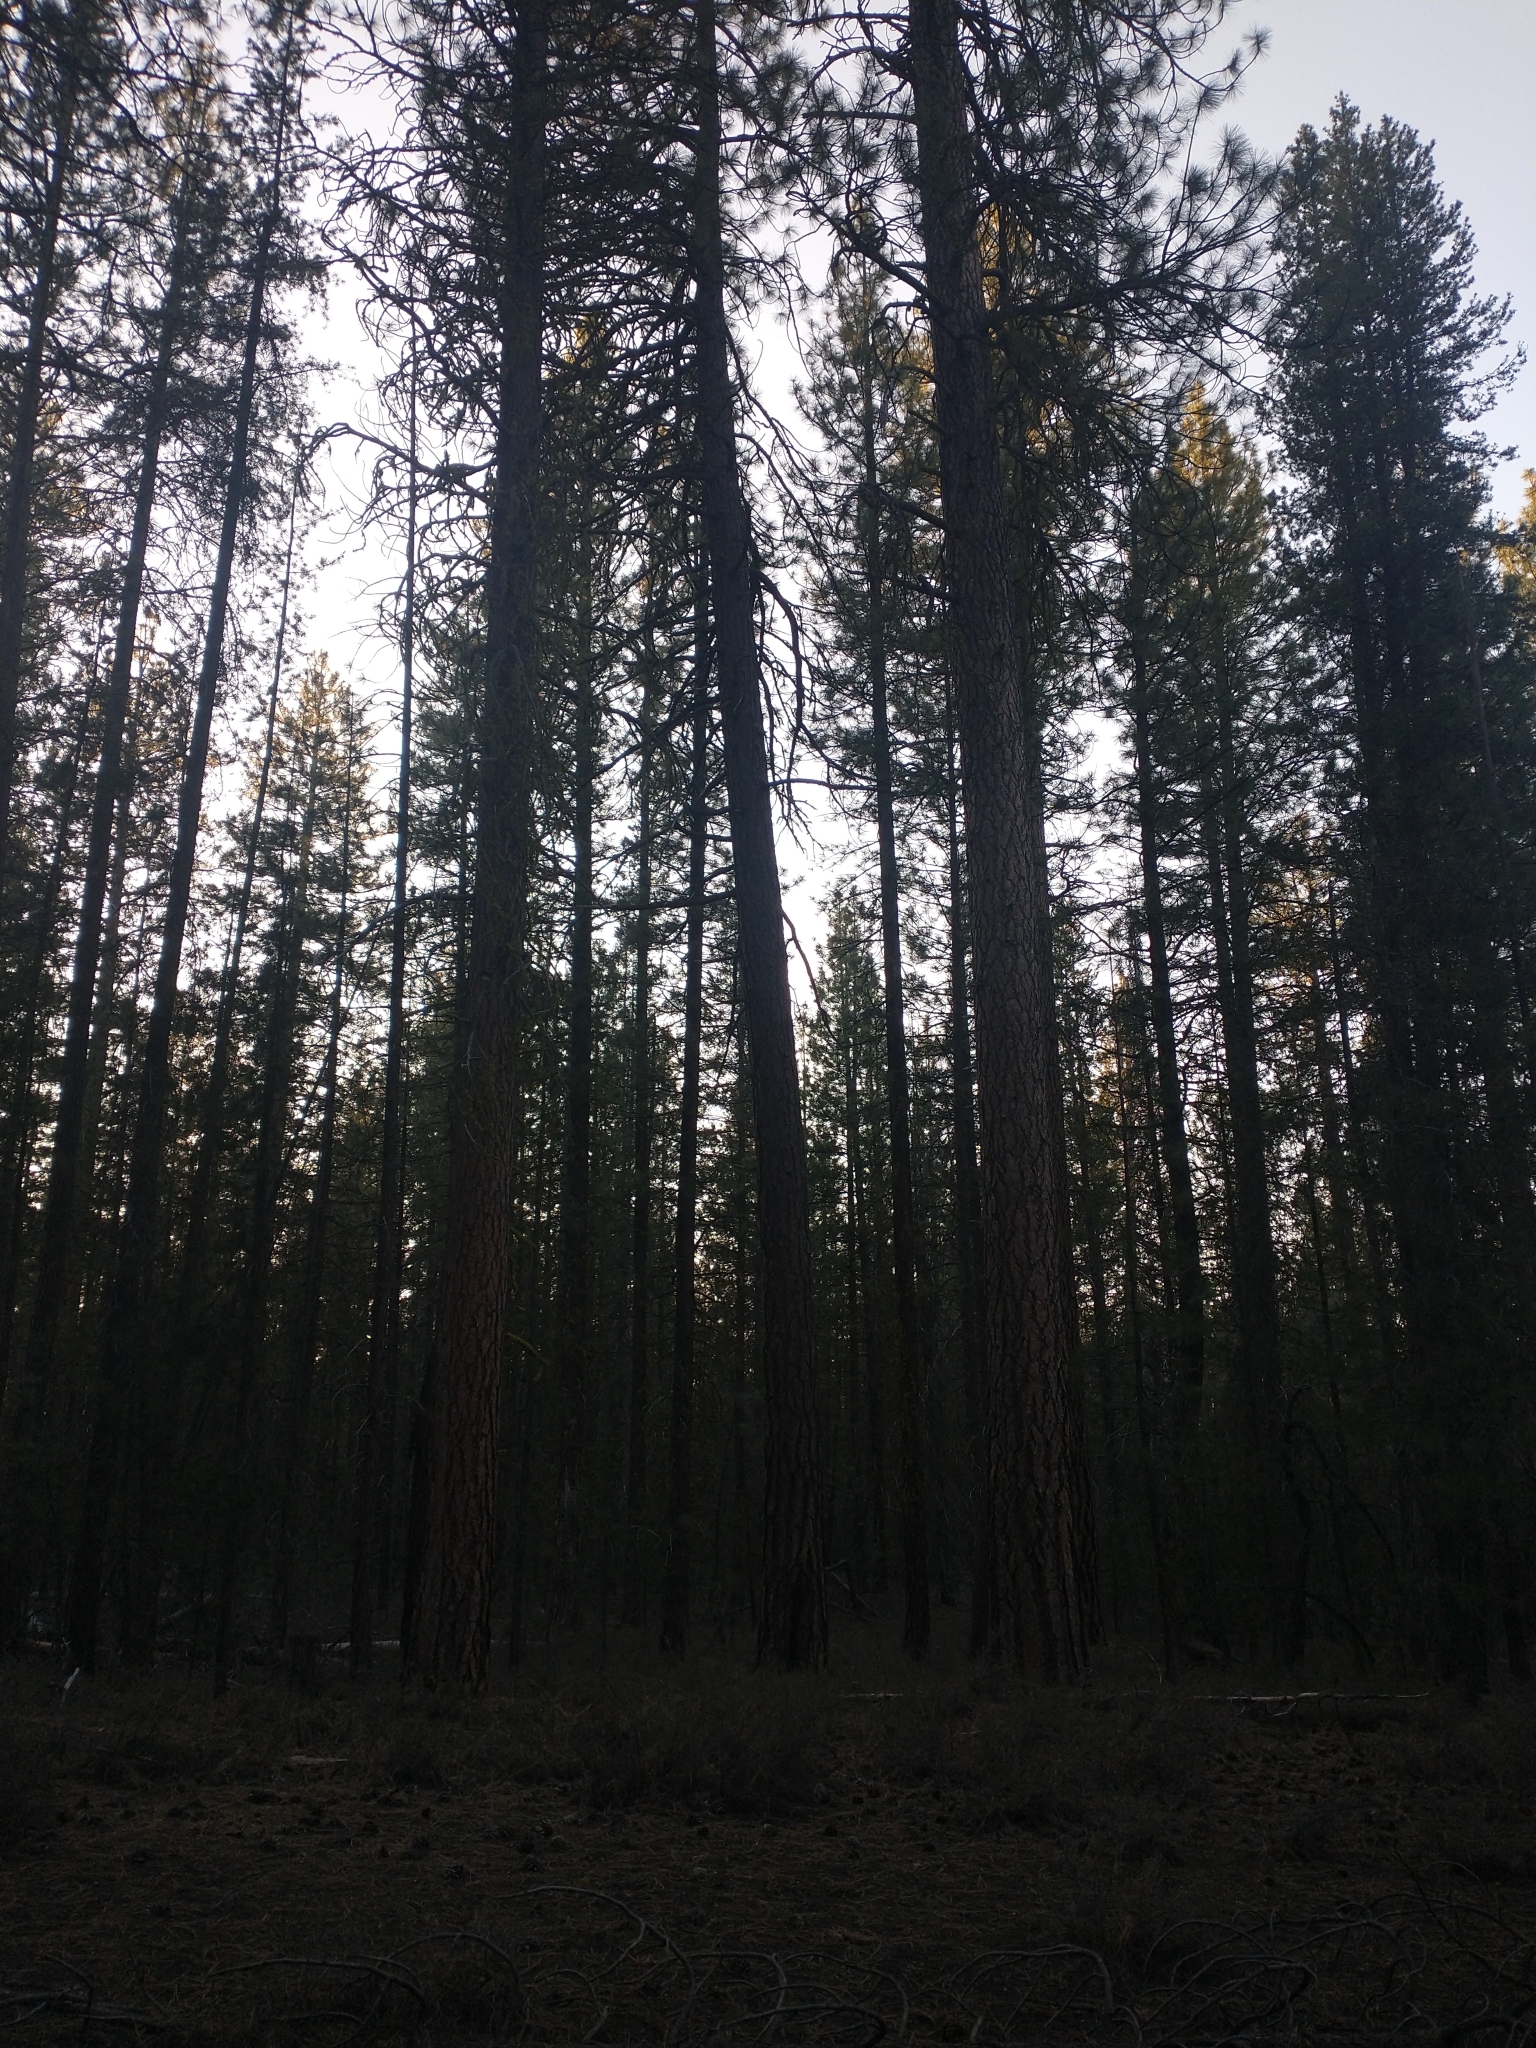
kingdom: Plantae
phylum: Tracheophyta
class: Pinopsida
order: Pinales
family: Pinaceae
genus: Pinus
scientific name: Pinus ponderosa
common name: Western yellow-pine
